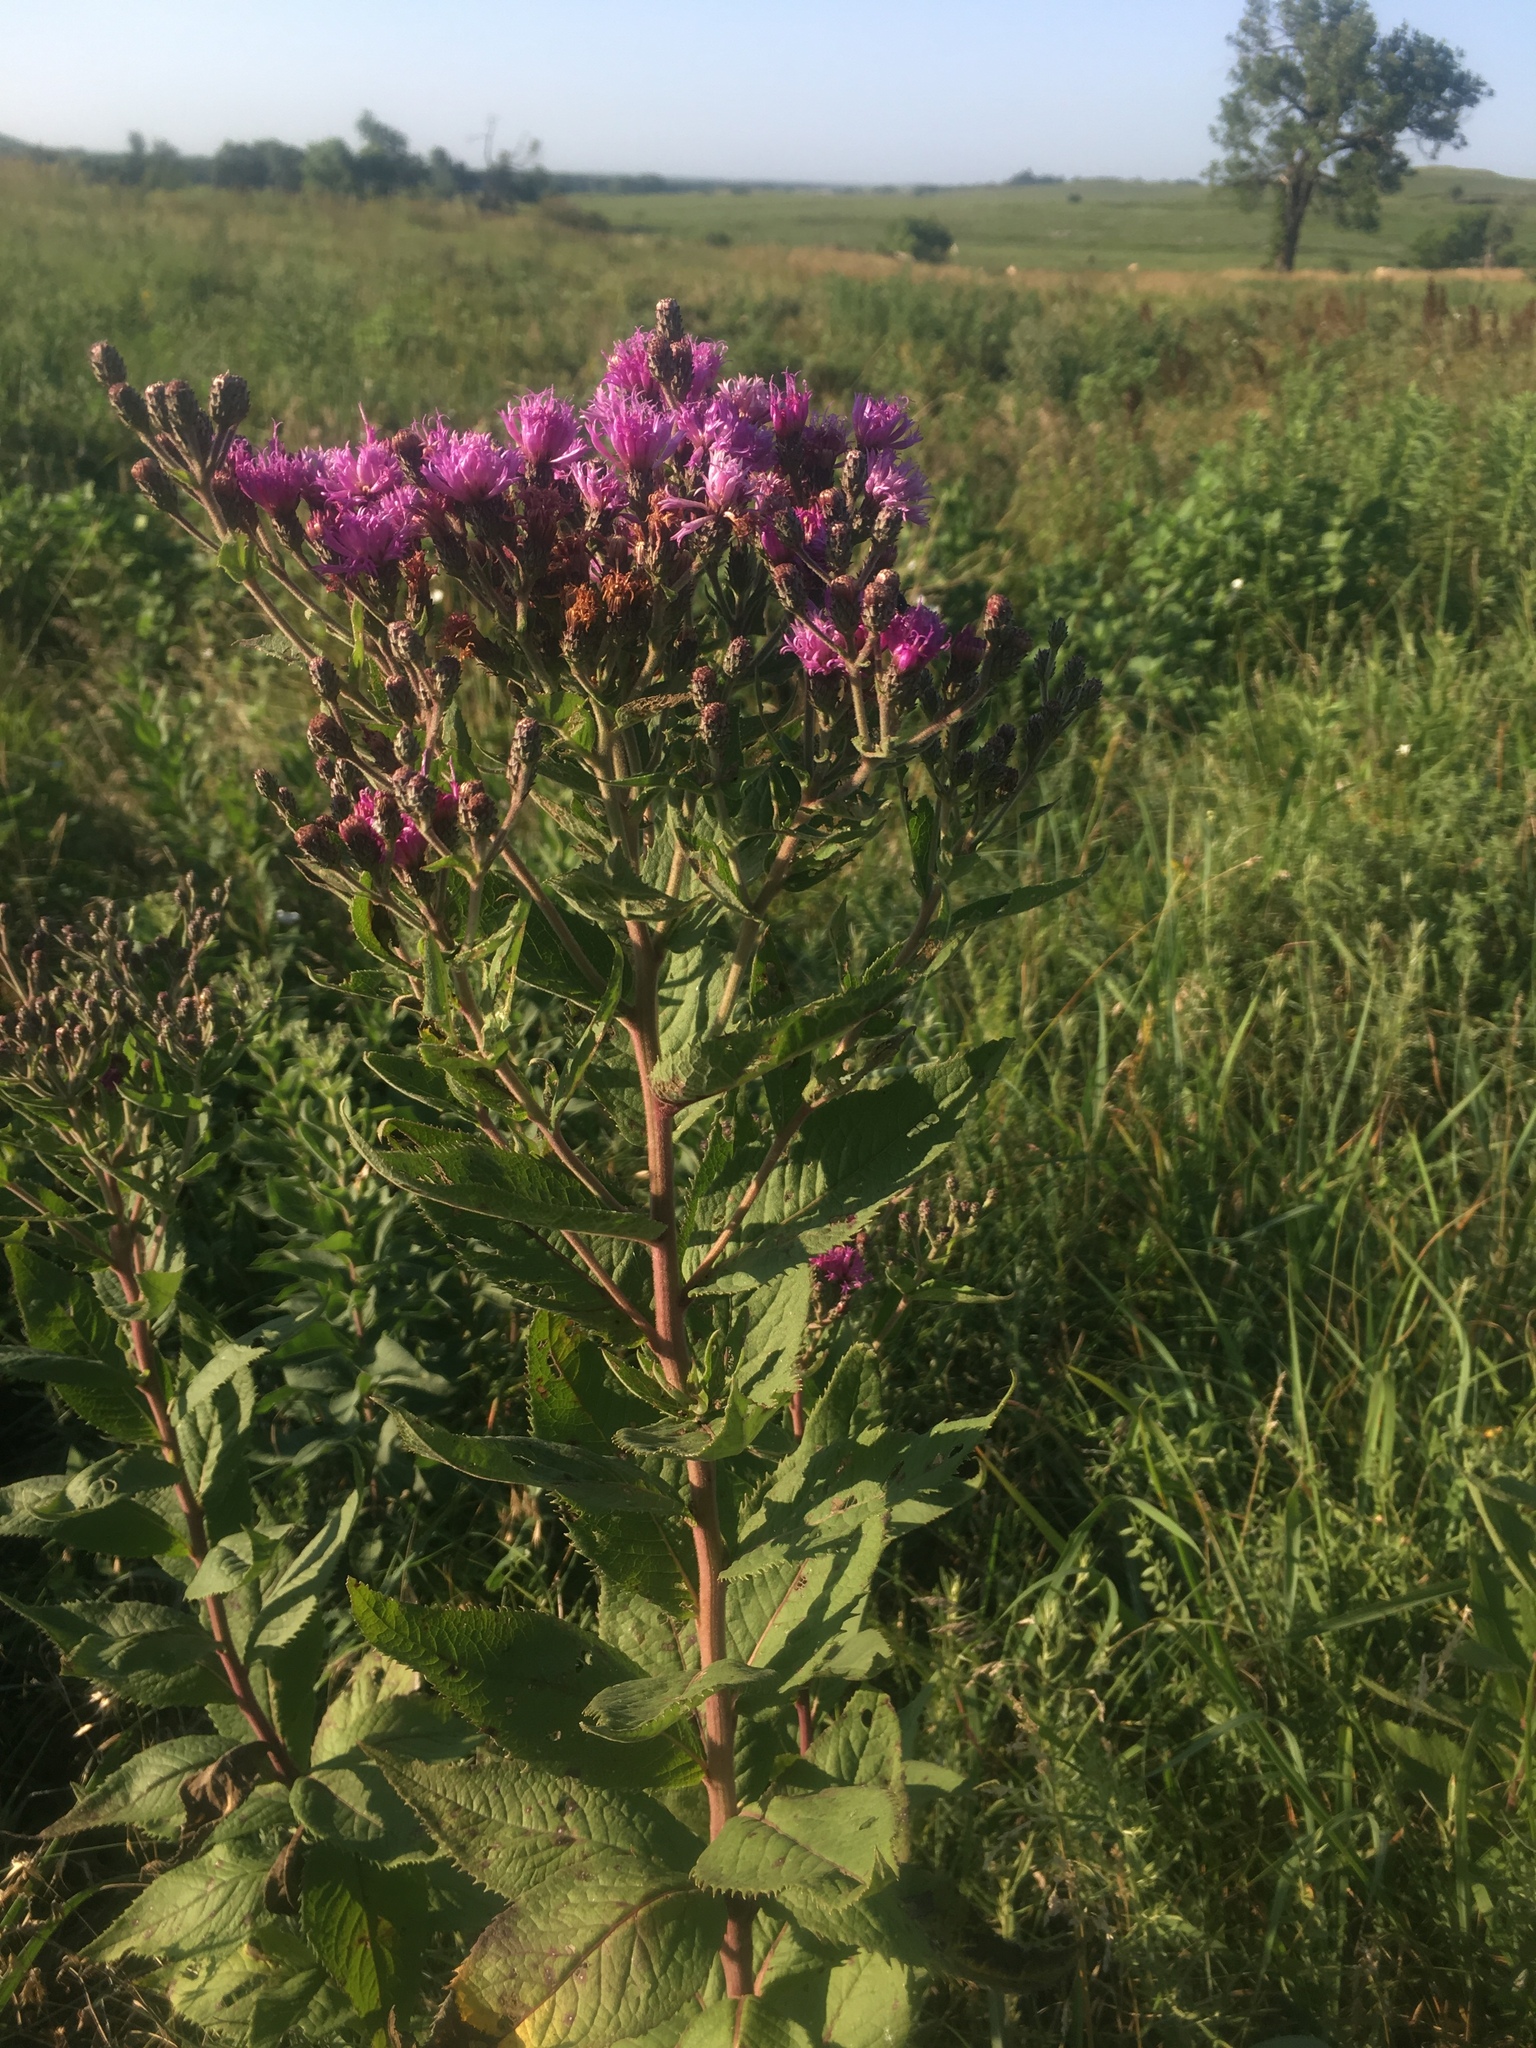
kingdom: Plantae
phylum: Tracheophyta
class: Magnoliopsida
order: Asterales
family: Asteraceae
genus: Vernonia
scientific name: Vernonia baldwinii
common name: Western ironweed
